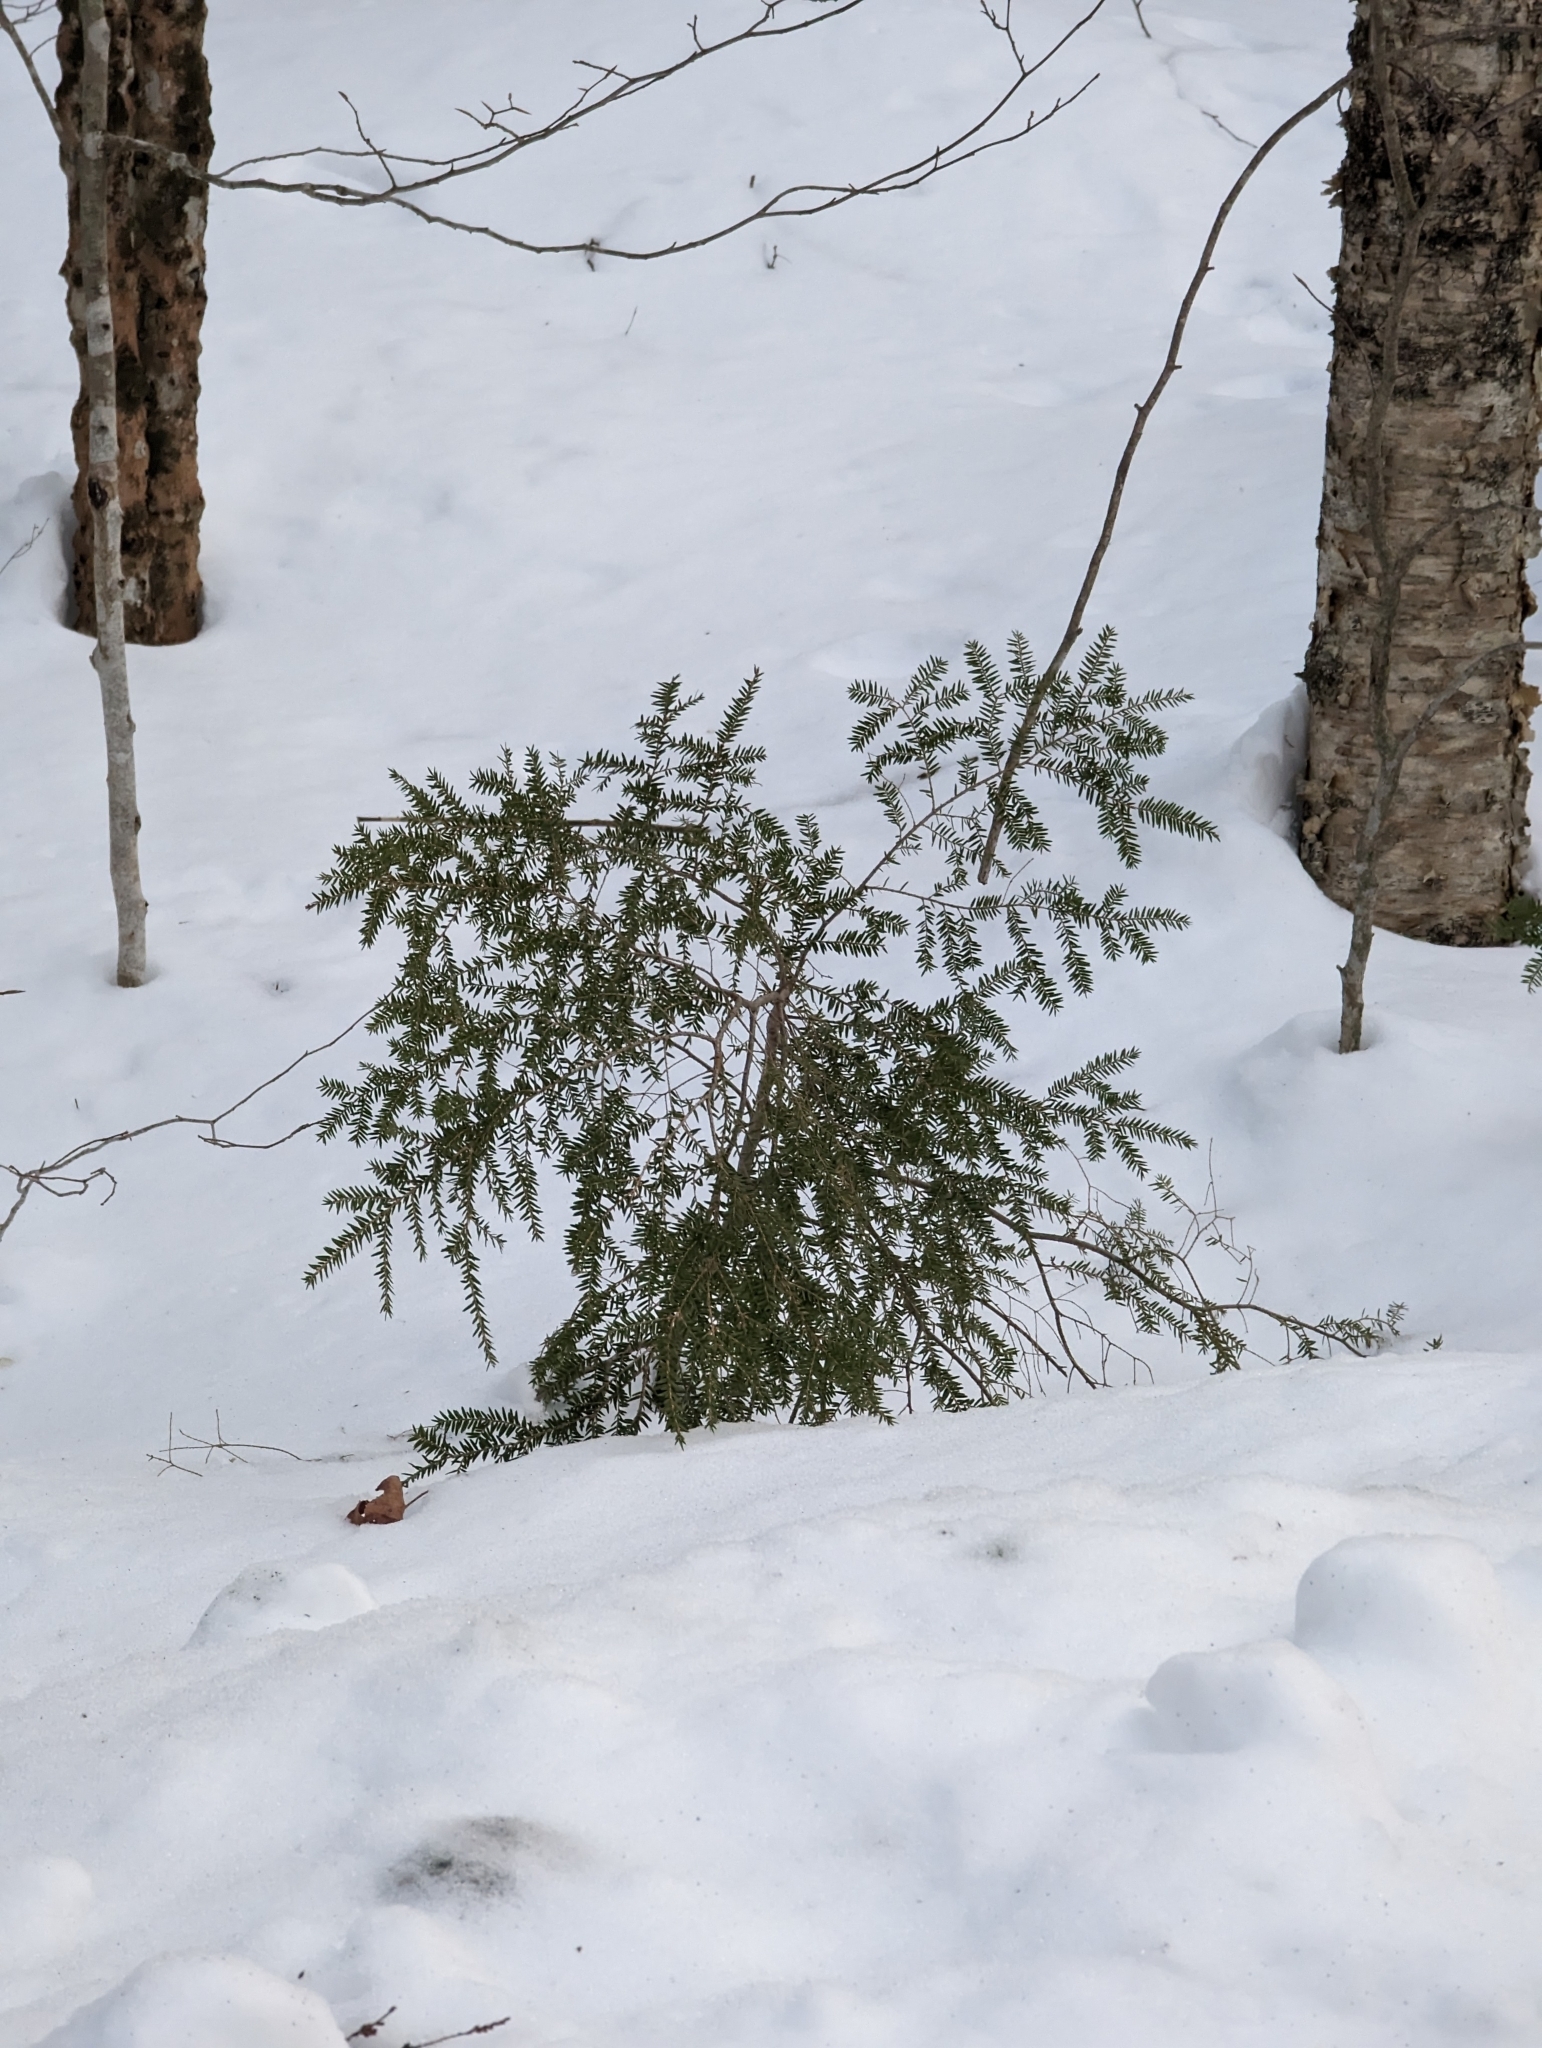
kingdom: Plantae
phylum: Tracheophyta
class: Pinopsida
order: Pinales
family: Pinaceae
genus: Tsuga
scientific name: Tsuga canadensis
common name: Eastern hemlock
